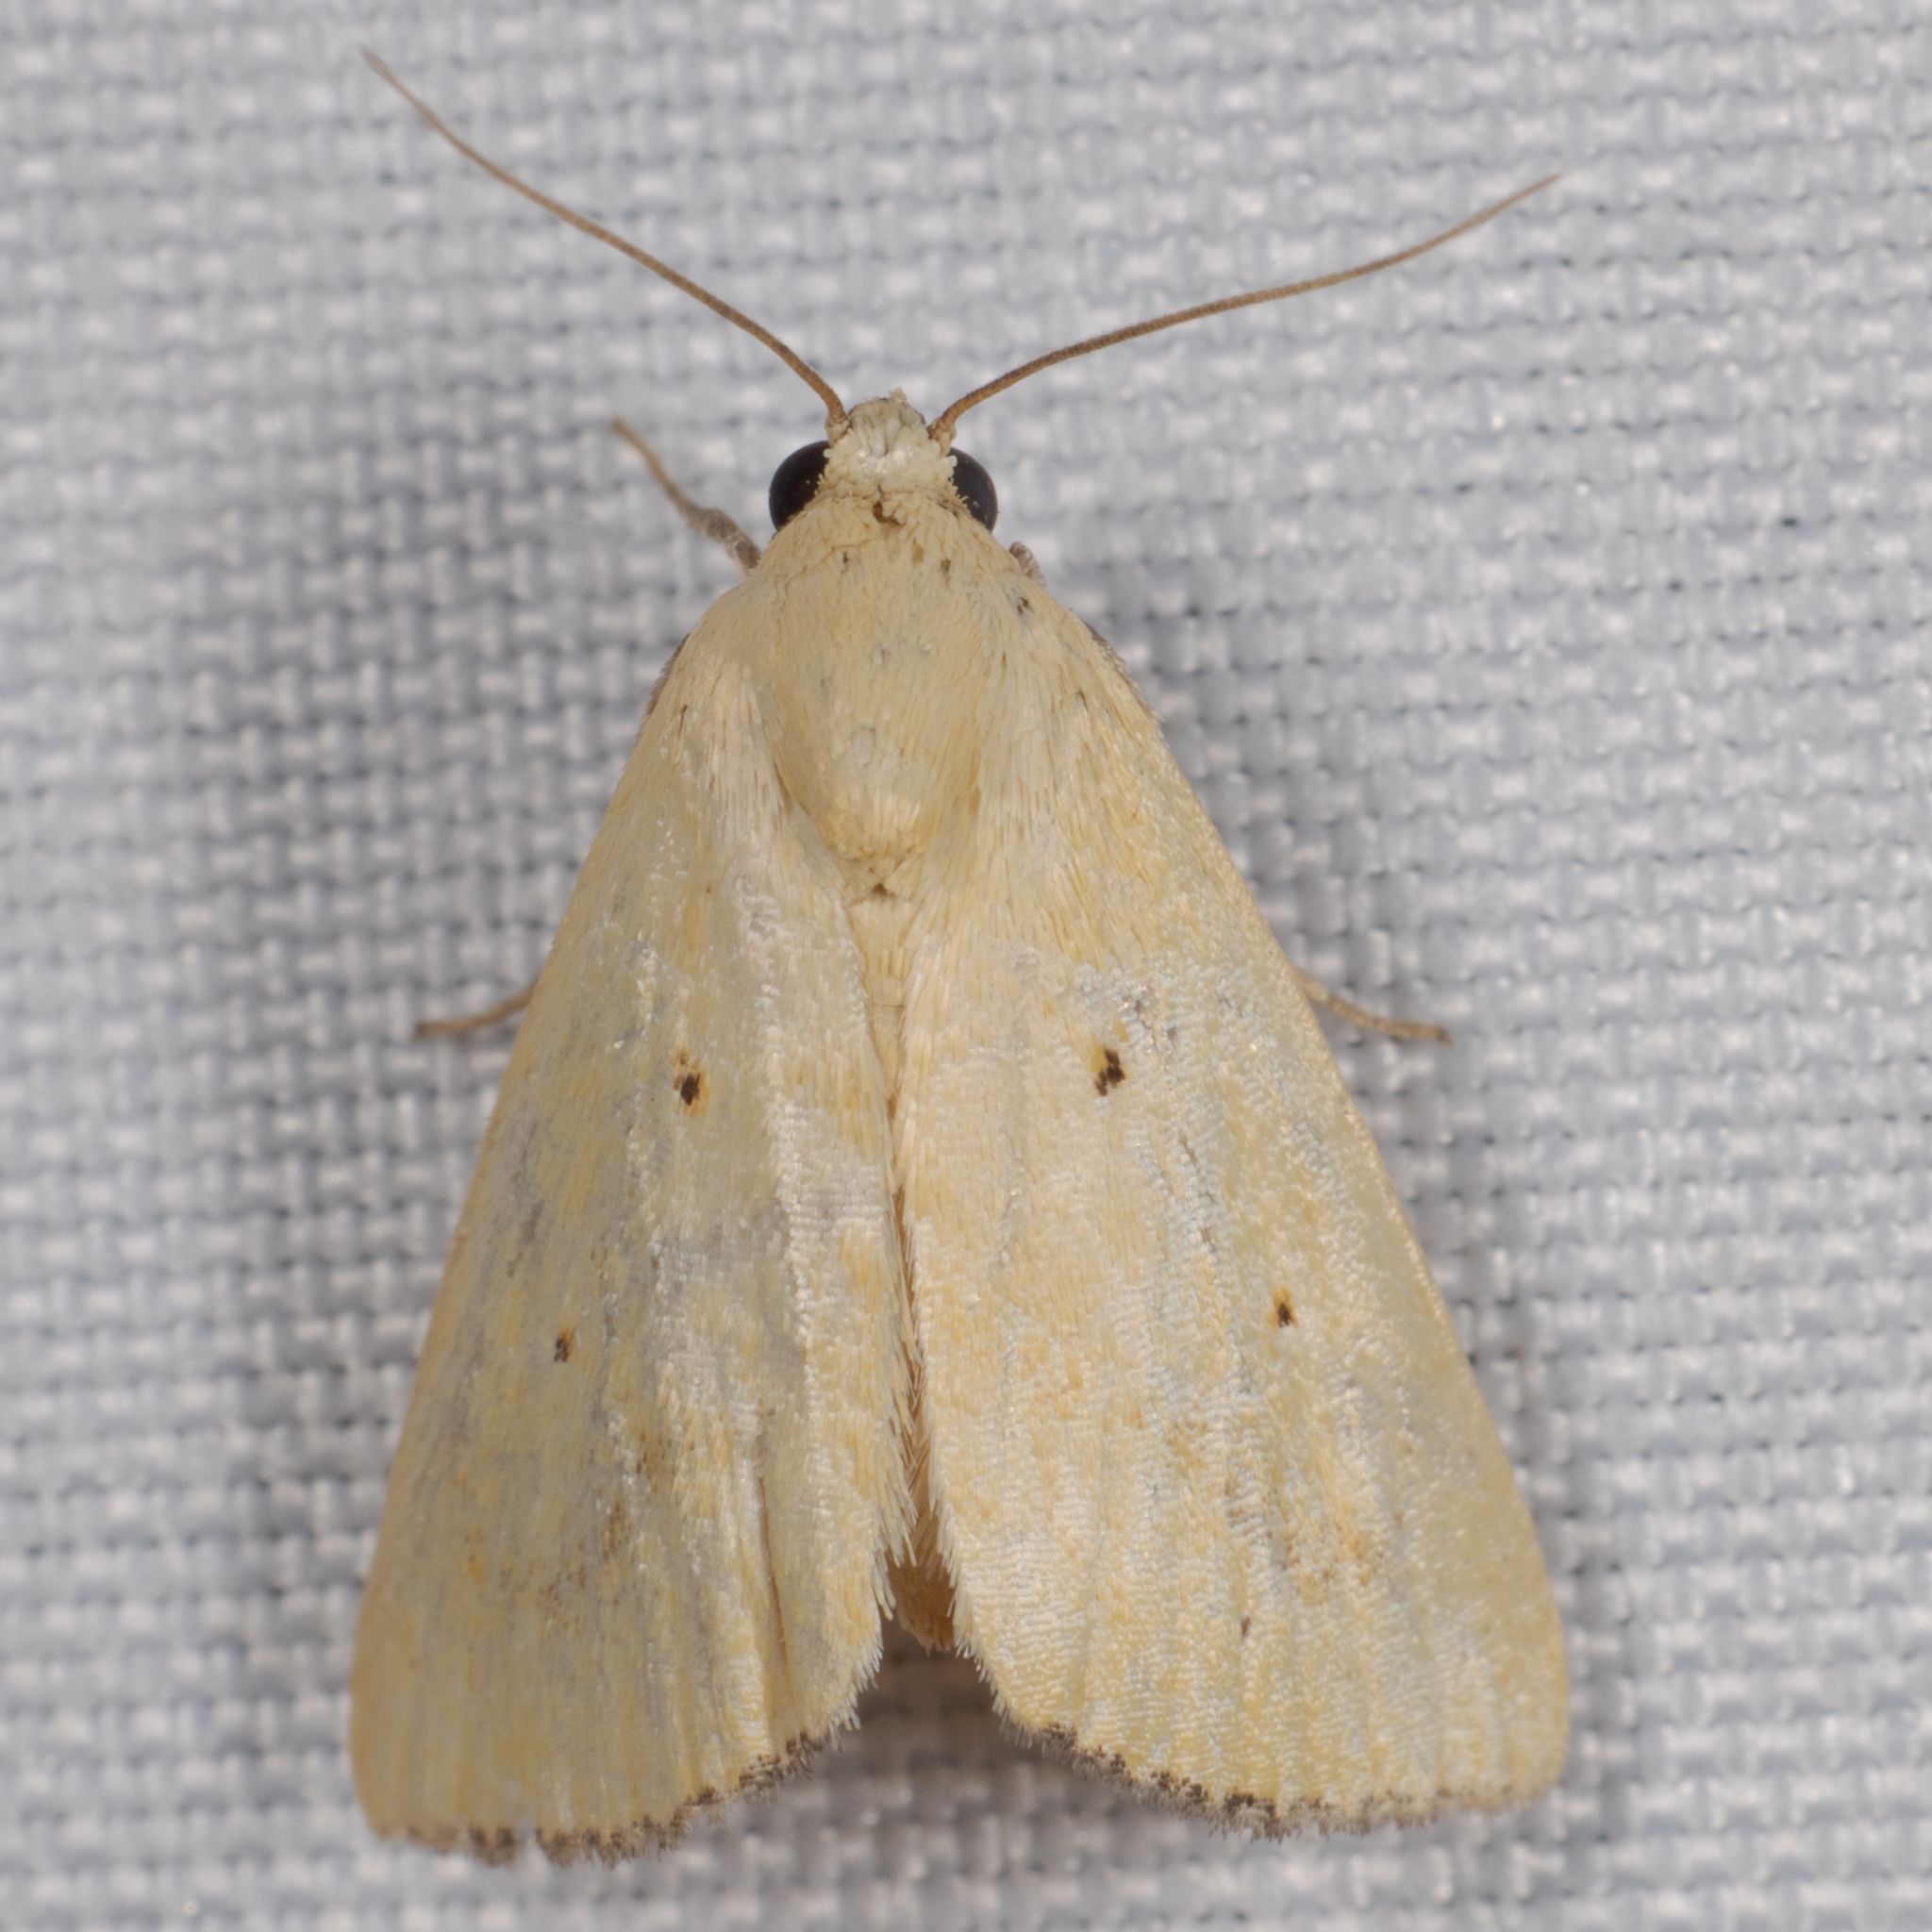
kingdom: Animalia
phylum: Arthropoda
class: Insecta
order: Lepidoptera
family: Noctuidae
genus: Marimatha
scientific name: Marimatha nigrofimbria
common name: Black-bordered lemon moth
